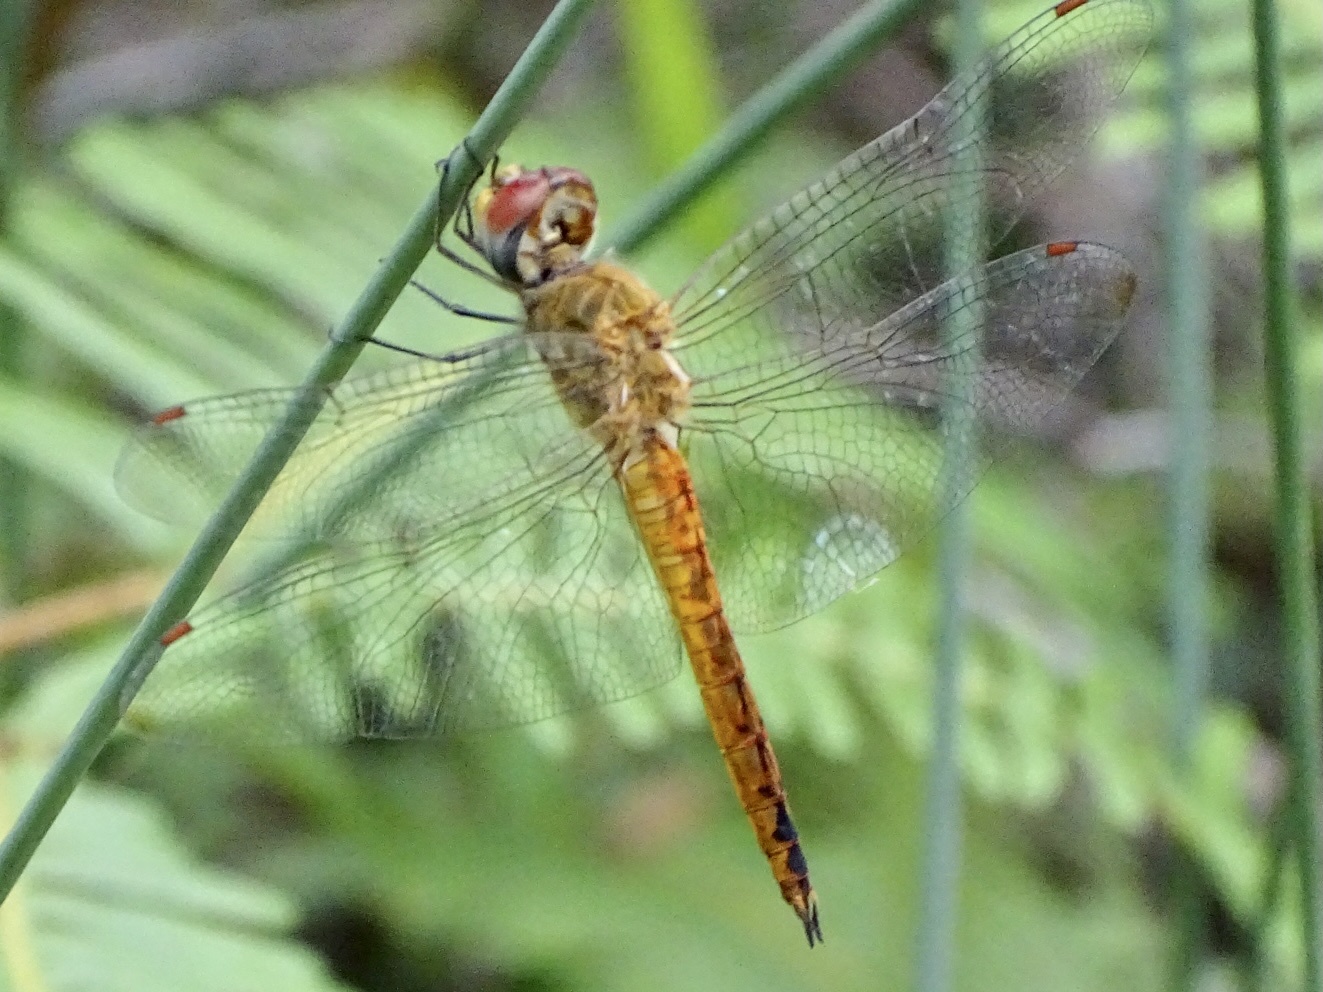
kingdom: Animalia
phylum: Arthropoda
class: Insecta
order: Odonata
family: Libellulidae
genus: Pantala
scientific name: Pantala flavescens
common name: Wandering glider
